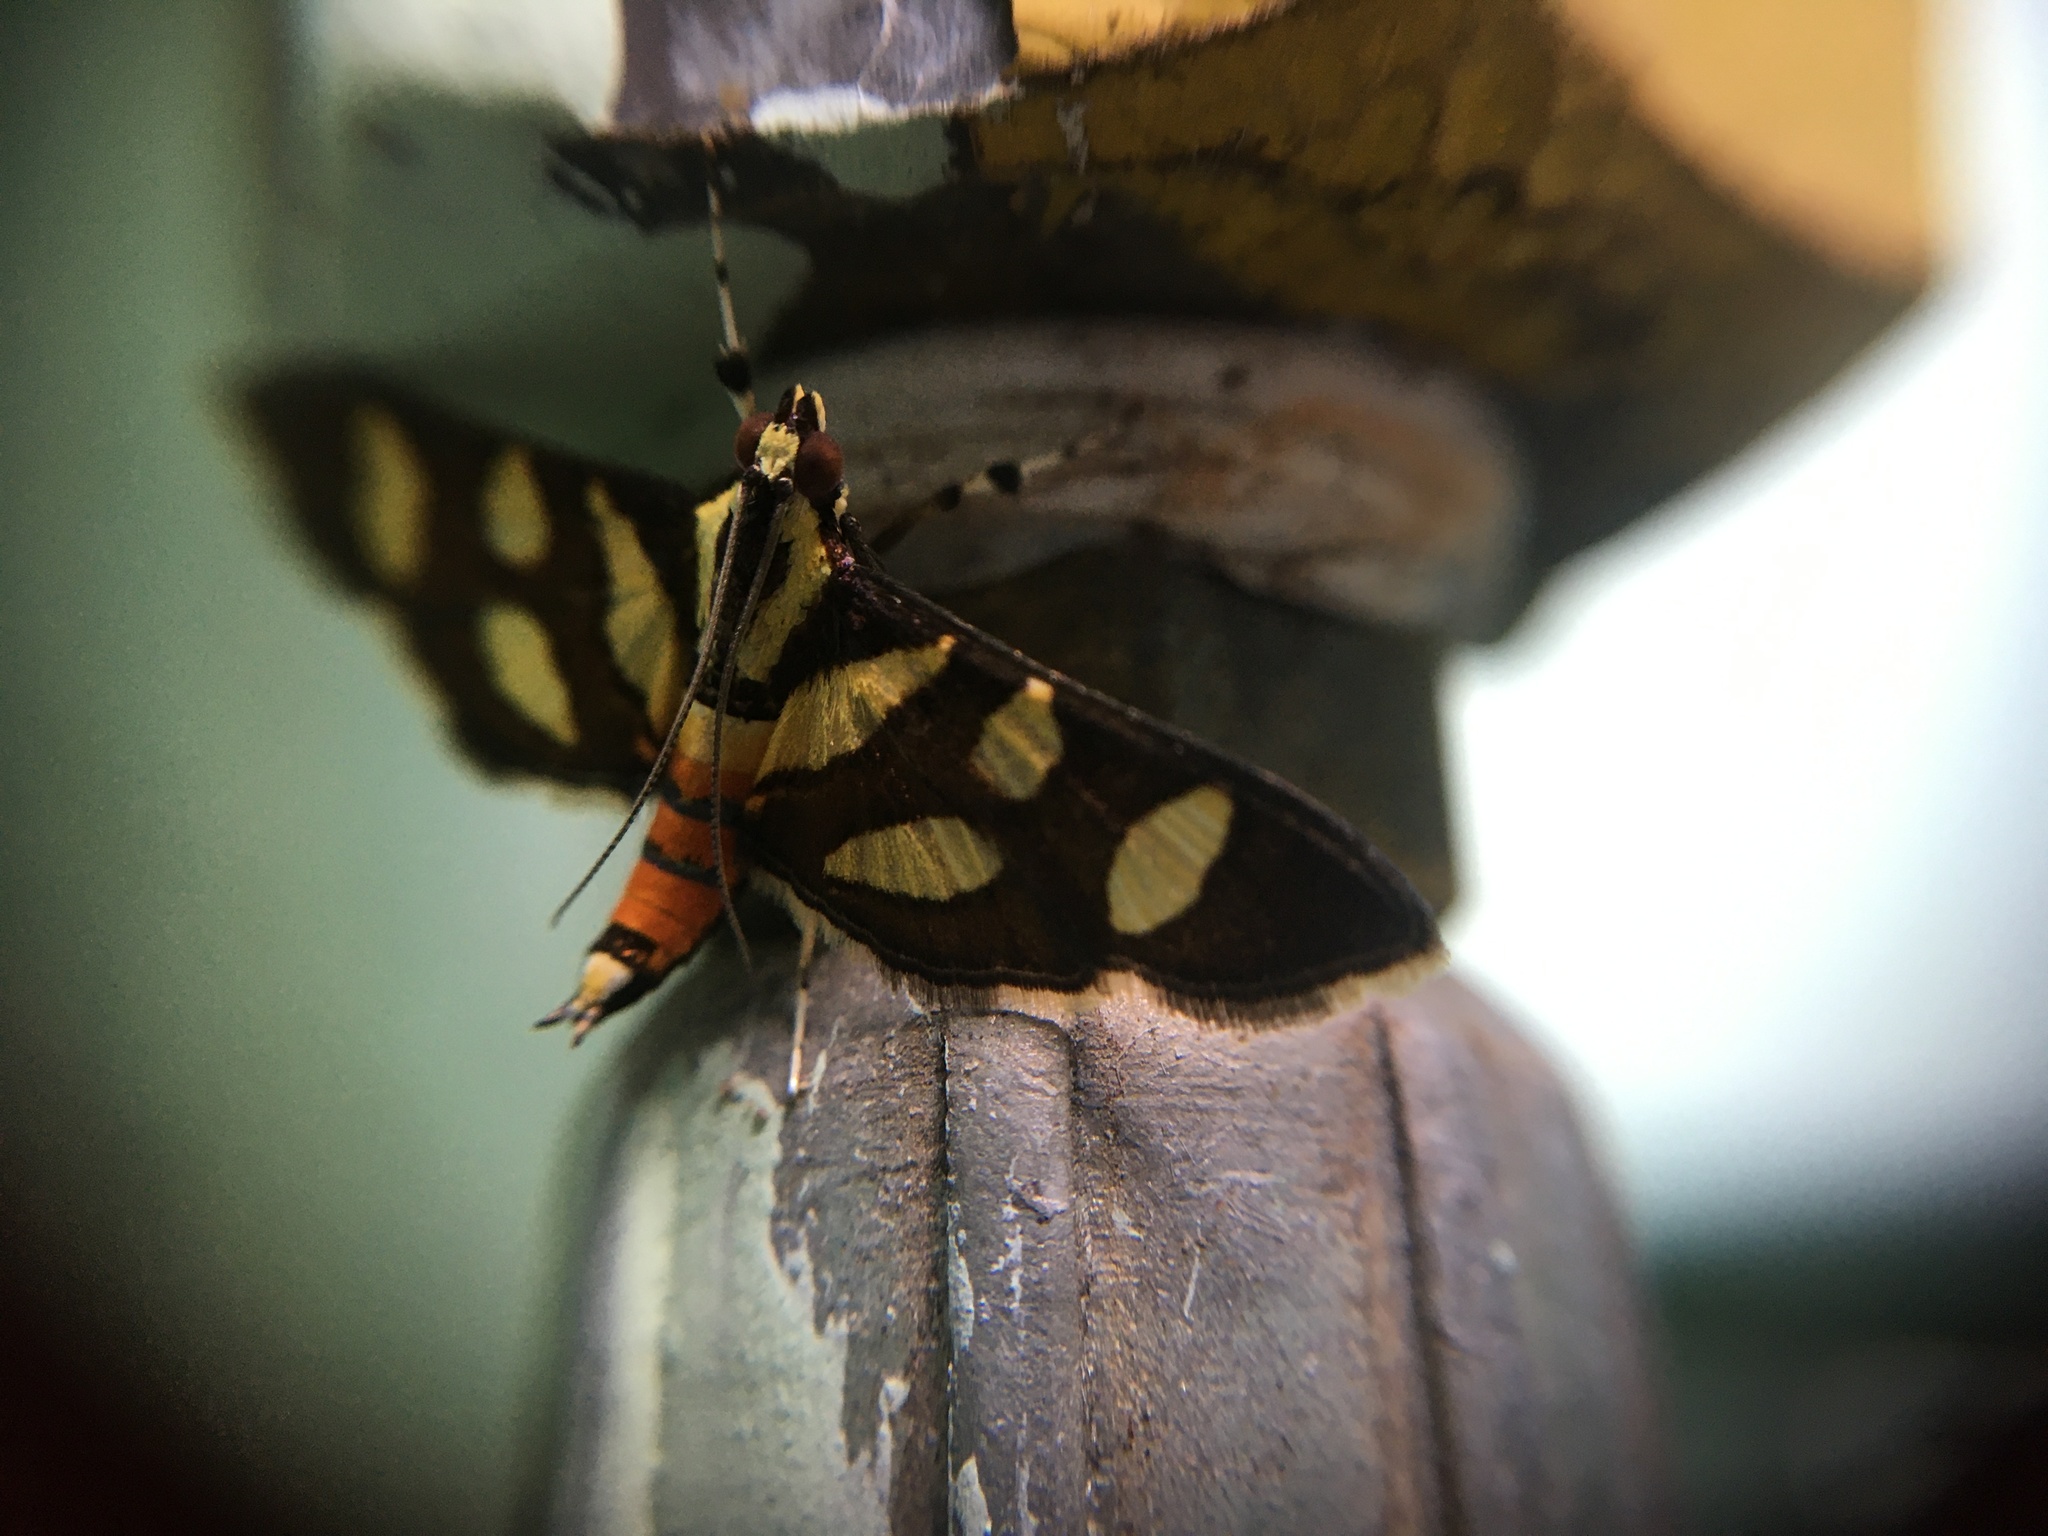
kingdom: Animalia
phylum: Arthropoda
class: Insecta
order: Lepidoptera
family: Crambidae
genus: Syngamia
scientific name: Syngamia florella
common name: Orange-spotted flower moth
